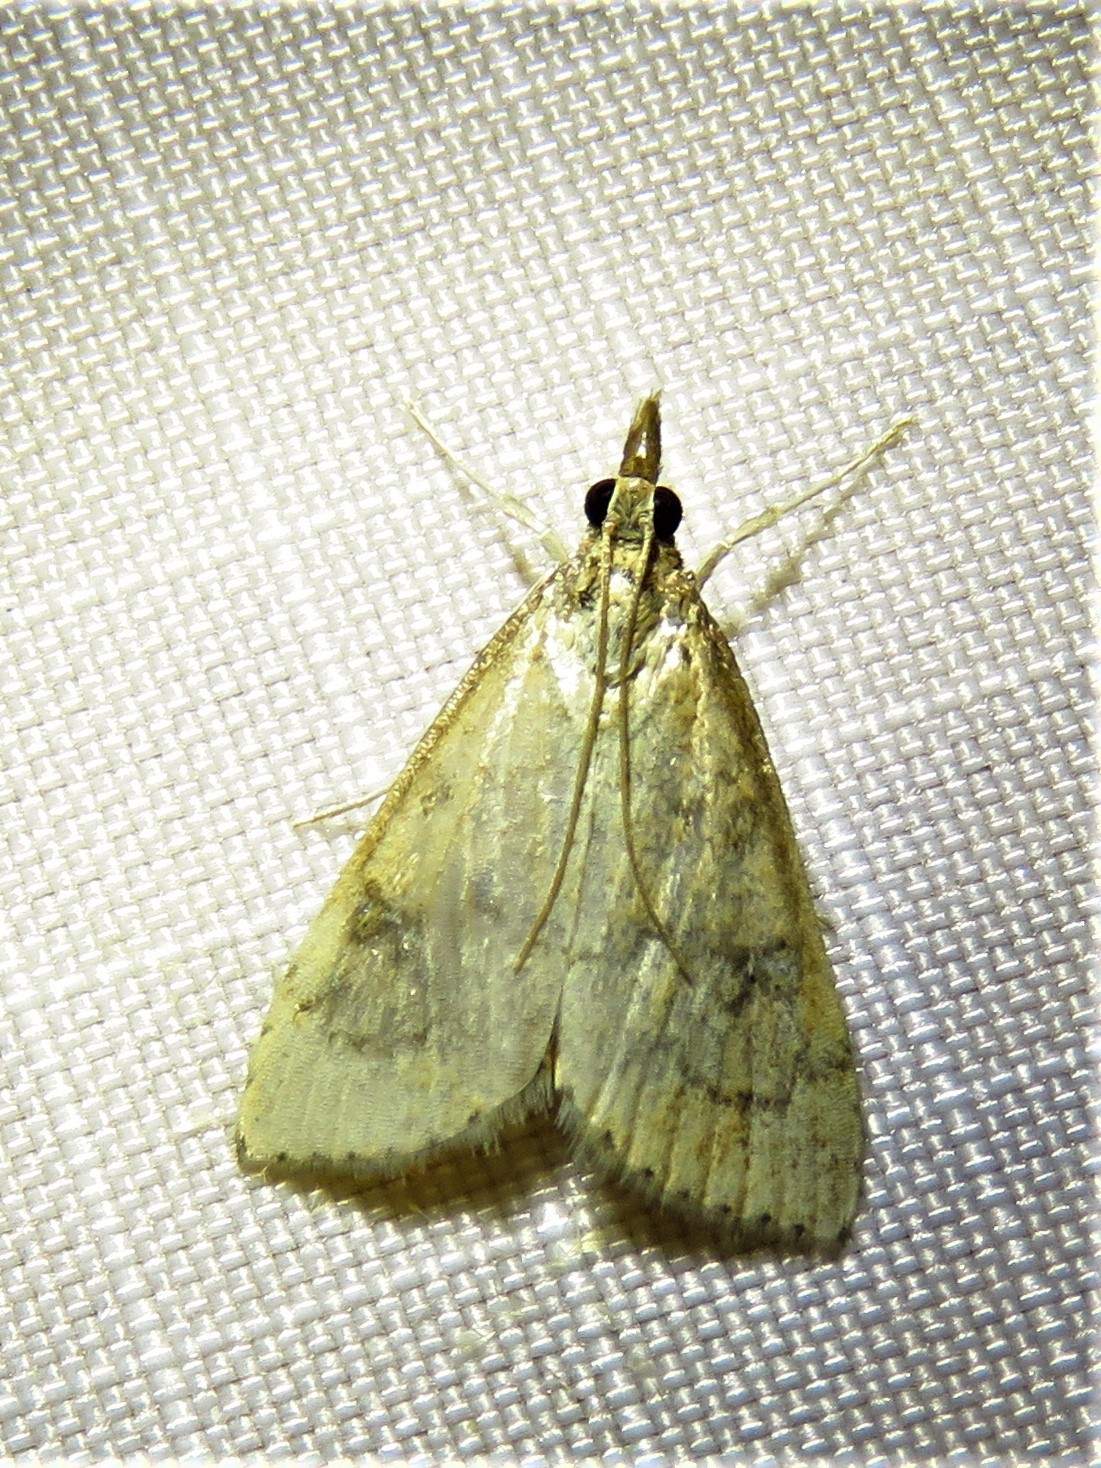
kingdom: Animalia
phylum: Arthropoda
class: Insecta
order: Lepidoptera
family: Crambidae
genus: Udea
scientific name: Udea rubigalis
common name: Celery leaftier moth
